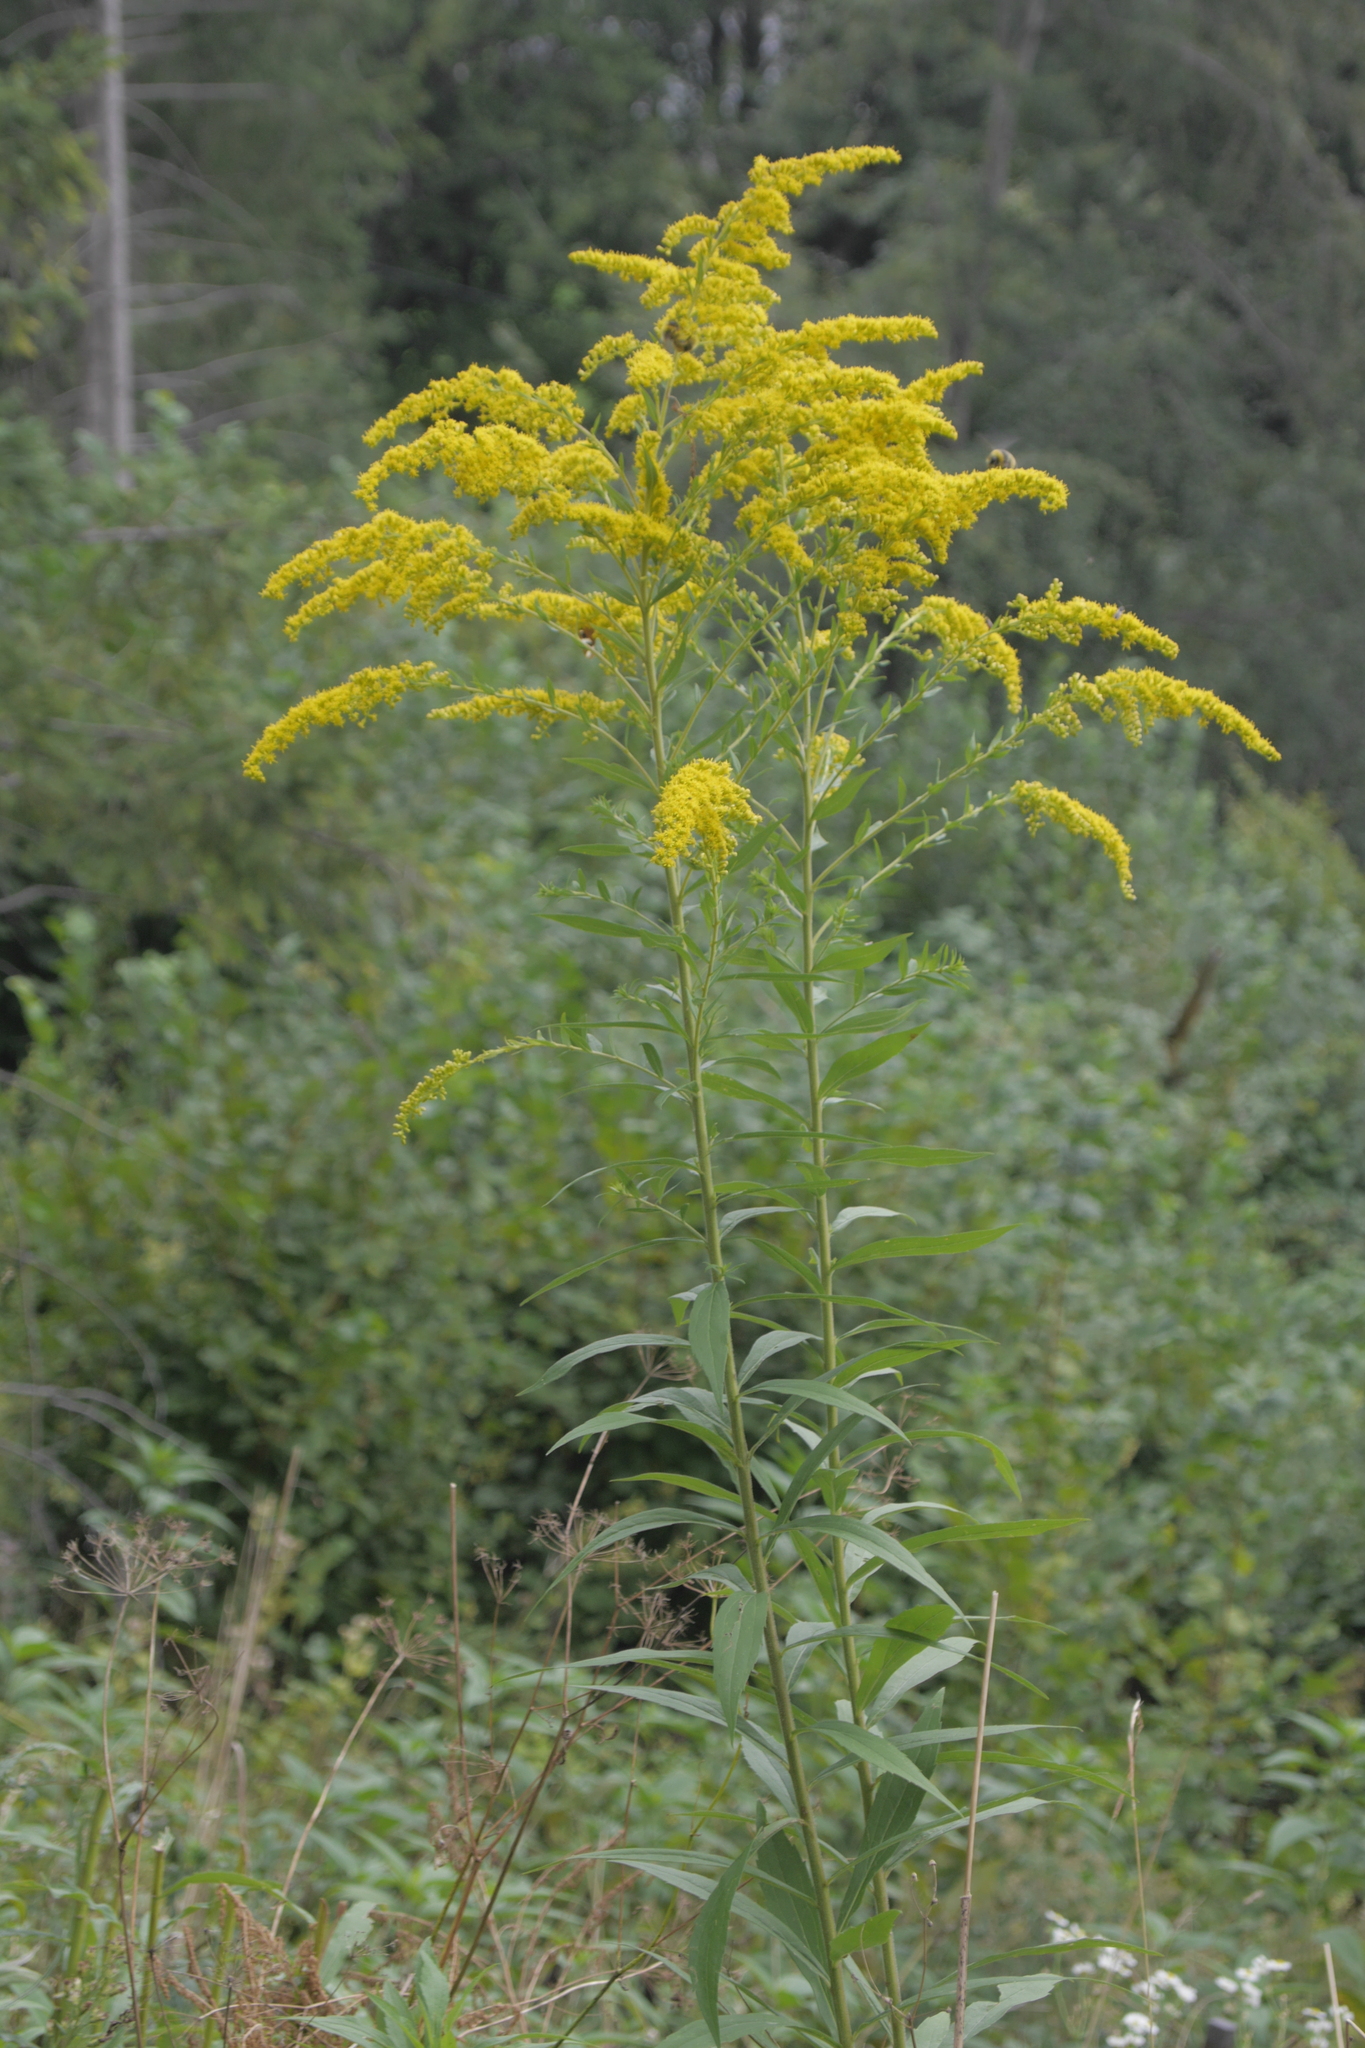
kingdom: Plantae
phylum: Tracheophyta
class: Magnoliopsida
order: Asterales
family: Asteraceae
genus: Solidago
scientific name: Solidago canadensis
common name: Canada goldenrod
